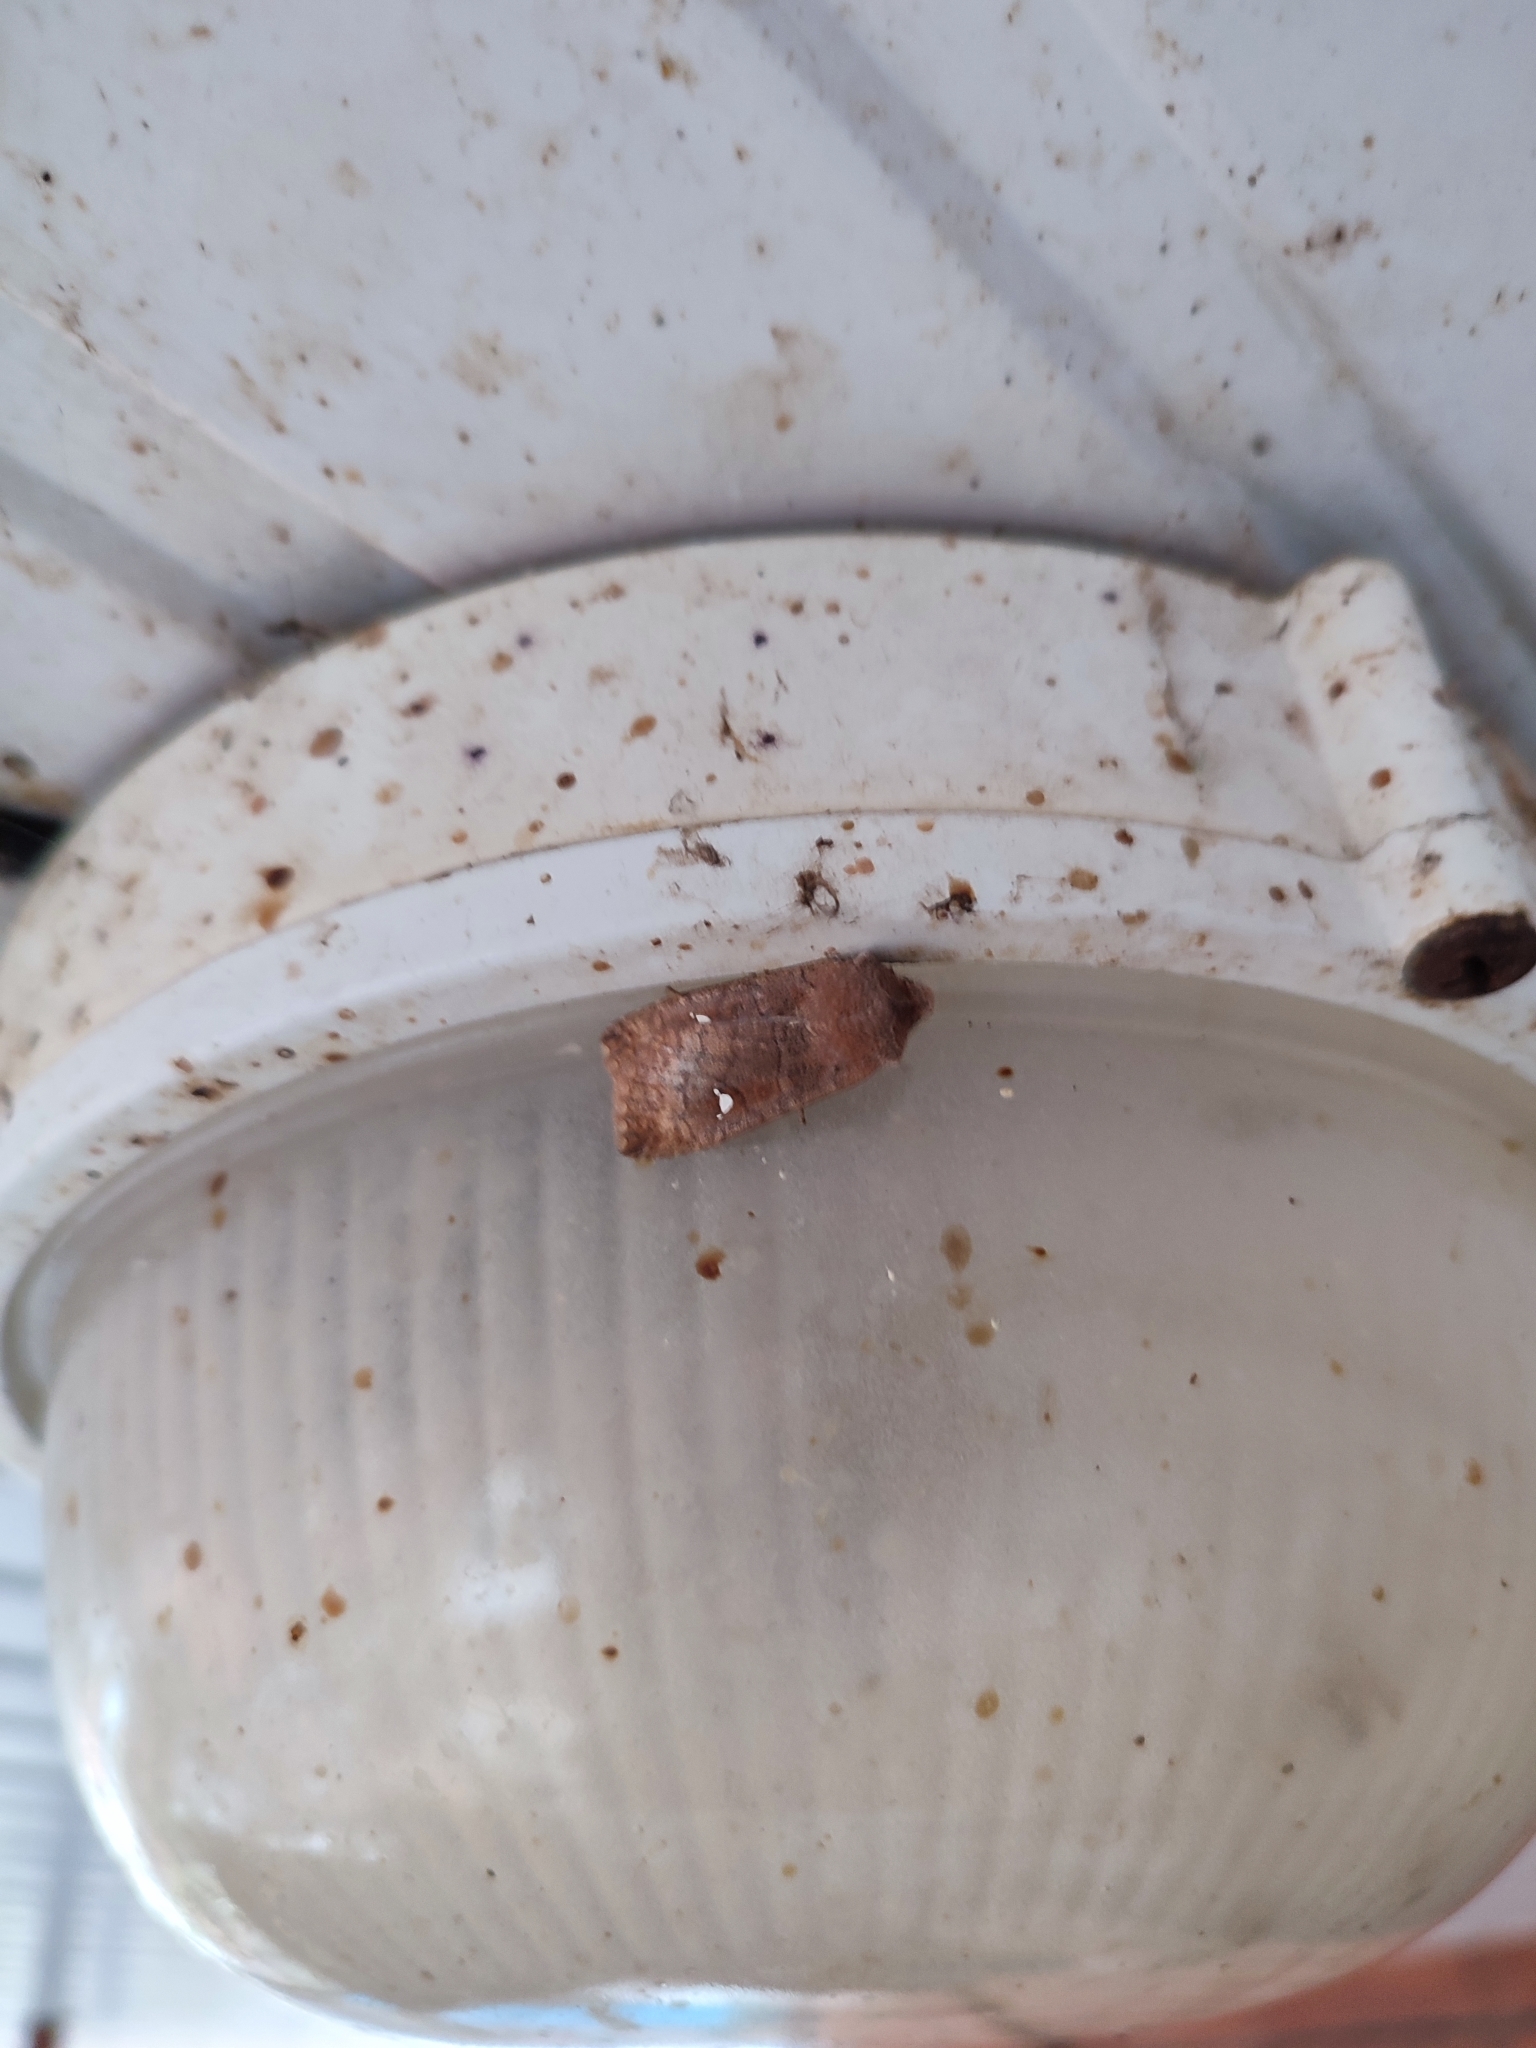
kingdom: Animalia
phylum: Arthropoda
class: Insecta
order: Lepidoptera
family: Noctuidae
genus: Eupsilia
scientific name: Eupsilia transversa
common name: Satellite
